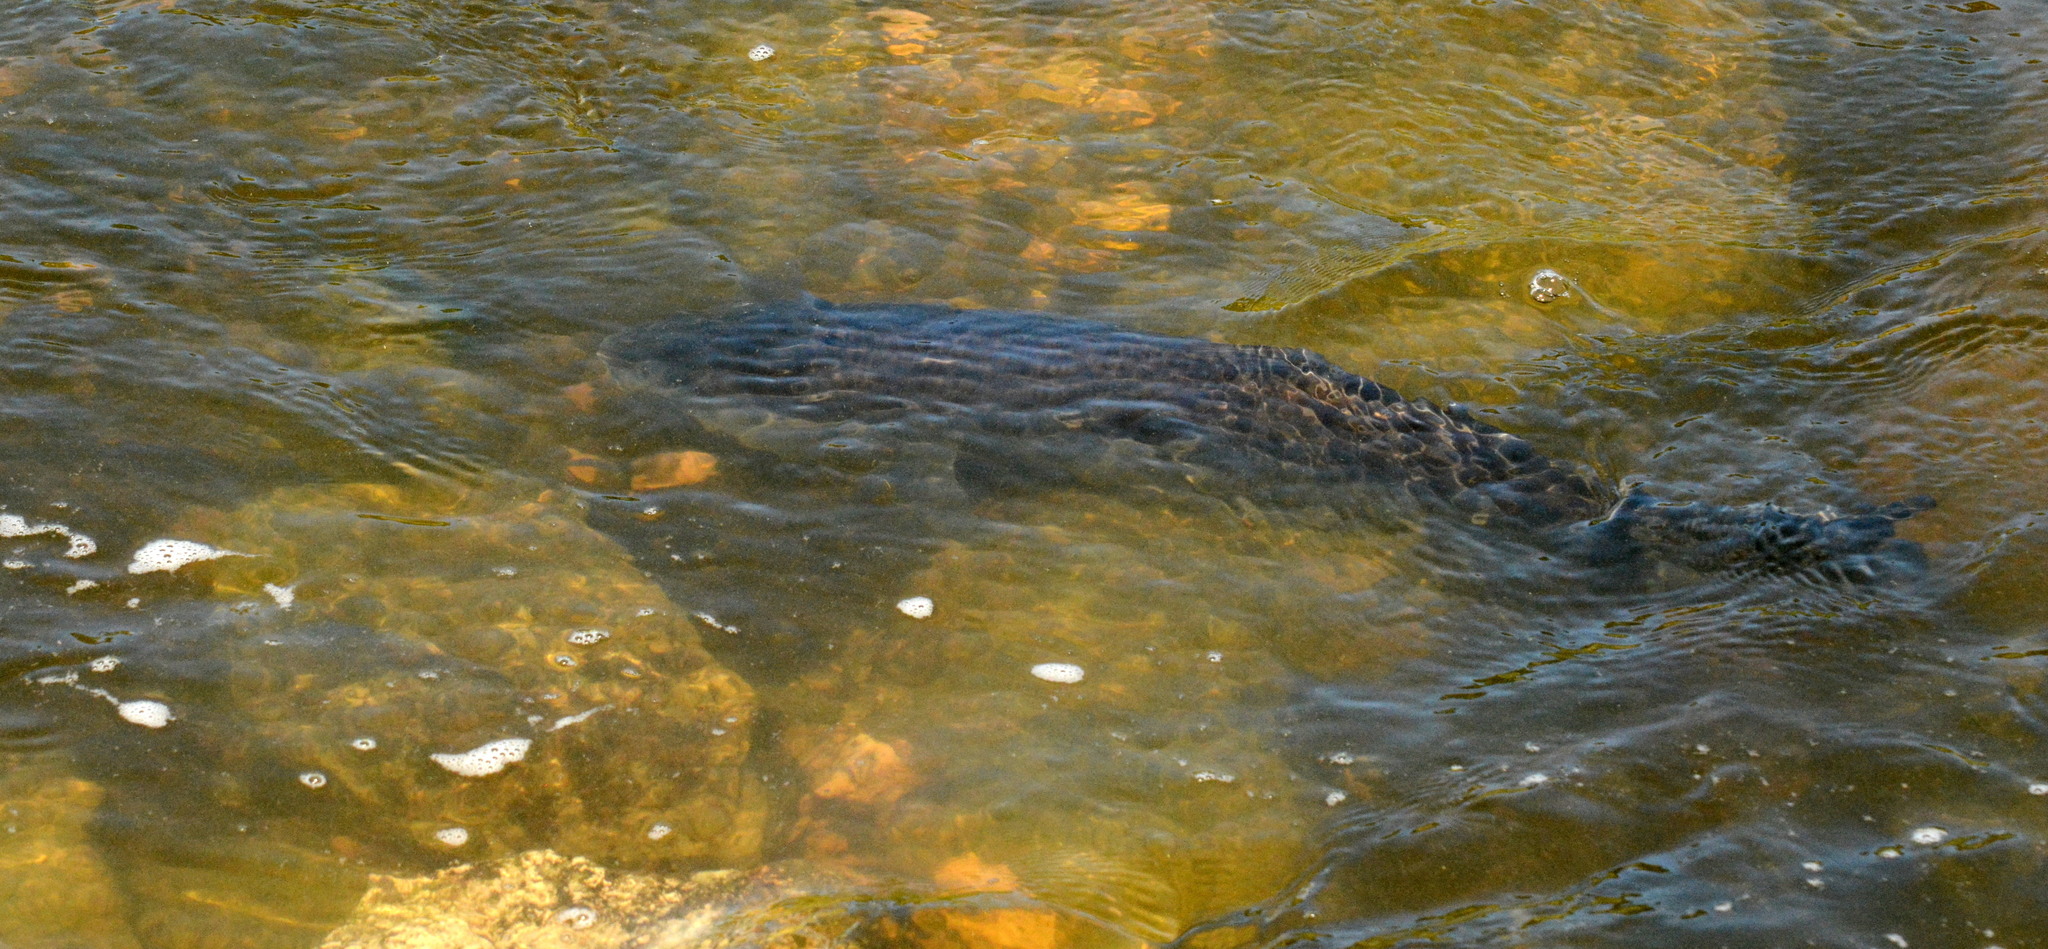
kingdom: Animalia
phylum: Chordata
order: Cypriniformes
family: Catostomidae
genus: Ictiobus
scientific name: Ictiobus cyprinellus
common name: Bigmouth buffalo
